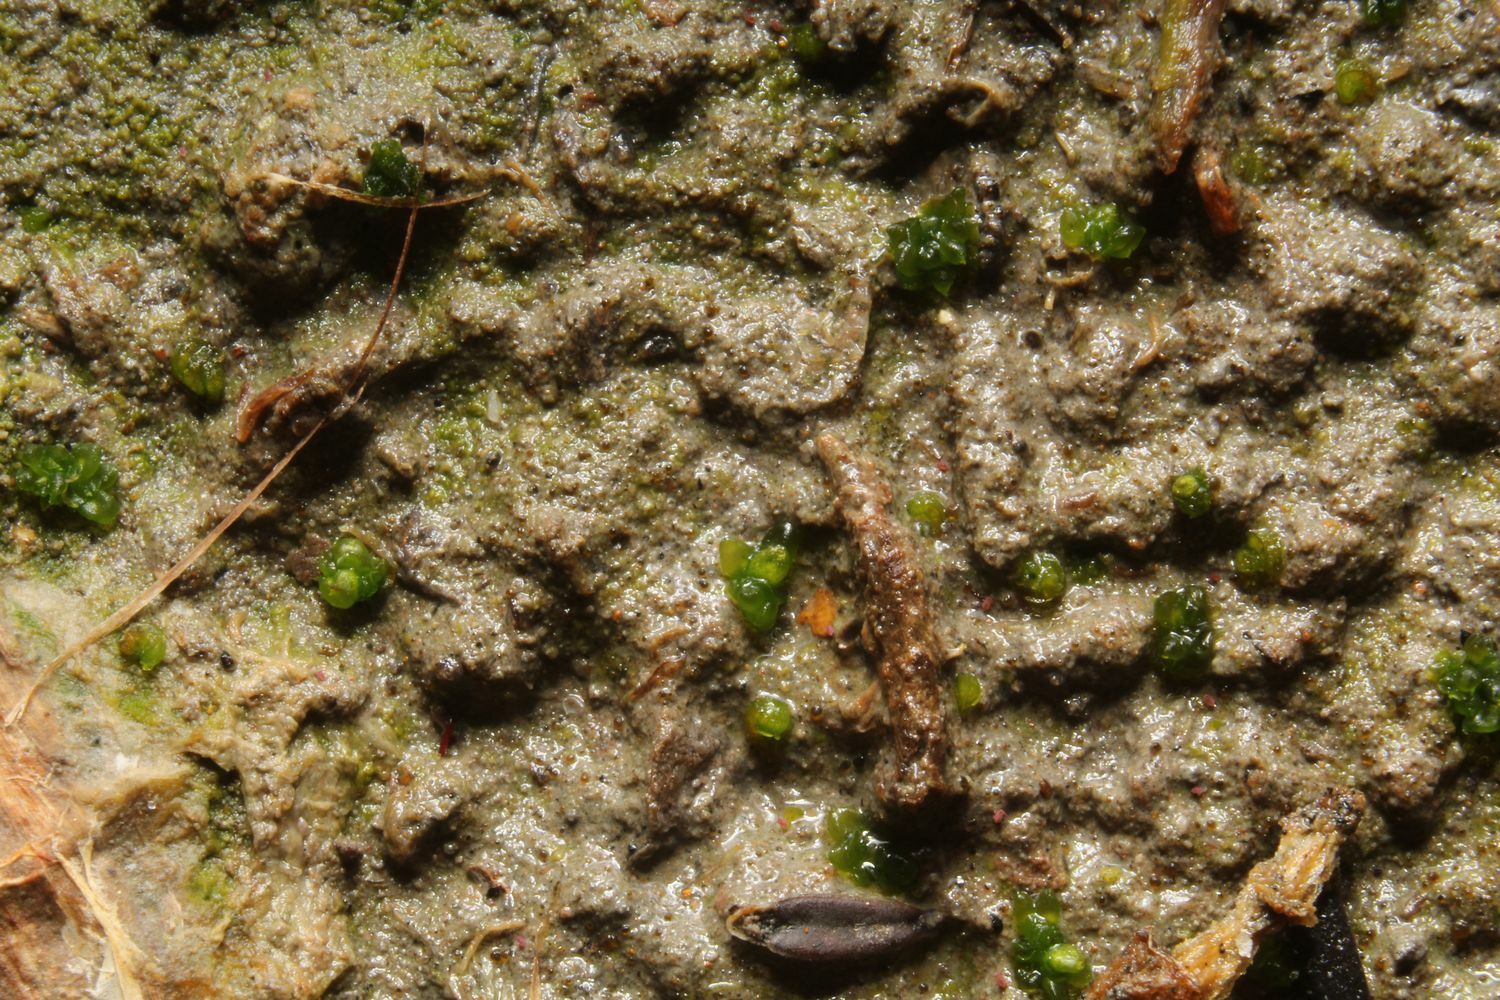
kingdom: Plantae
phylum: Marchantiophyta
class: Marchantiopsida
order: Sphaerocarpales
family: Riellaceae
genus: Austroriella
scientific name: Austroriella salta
